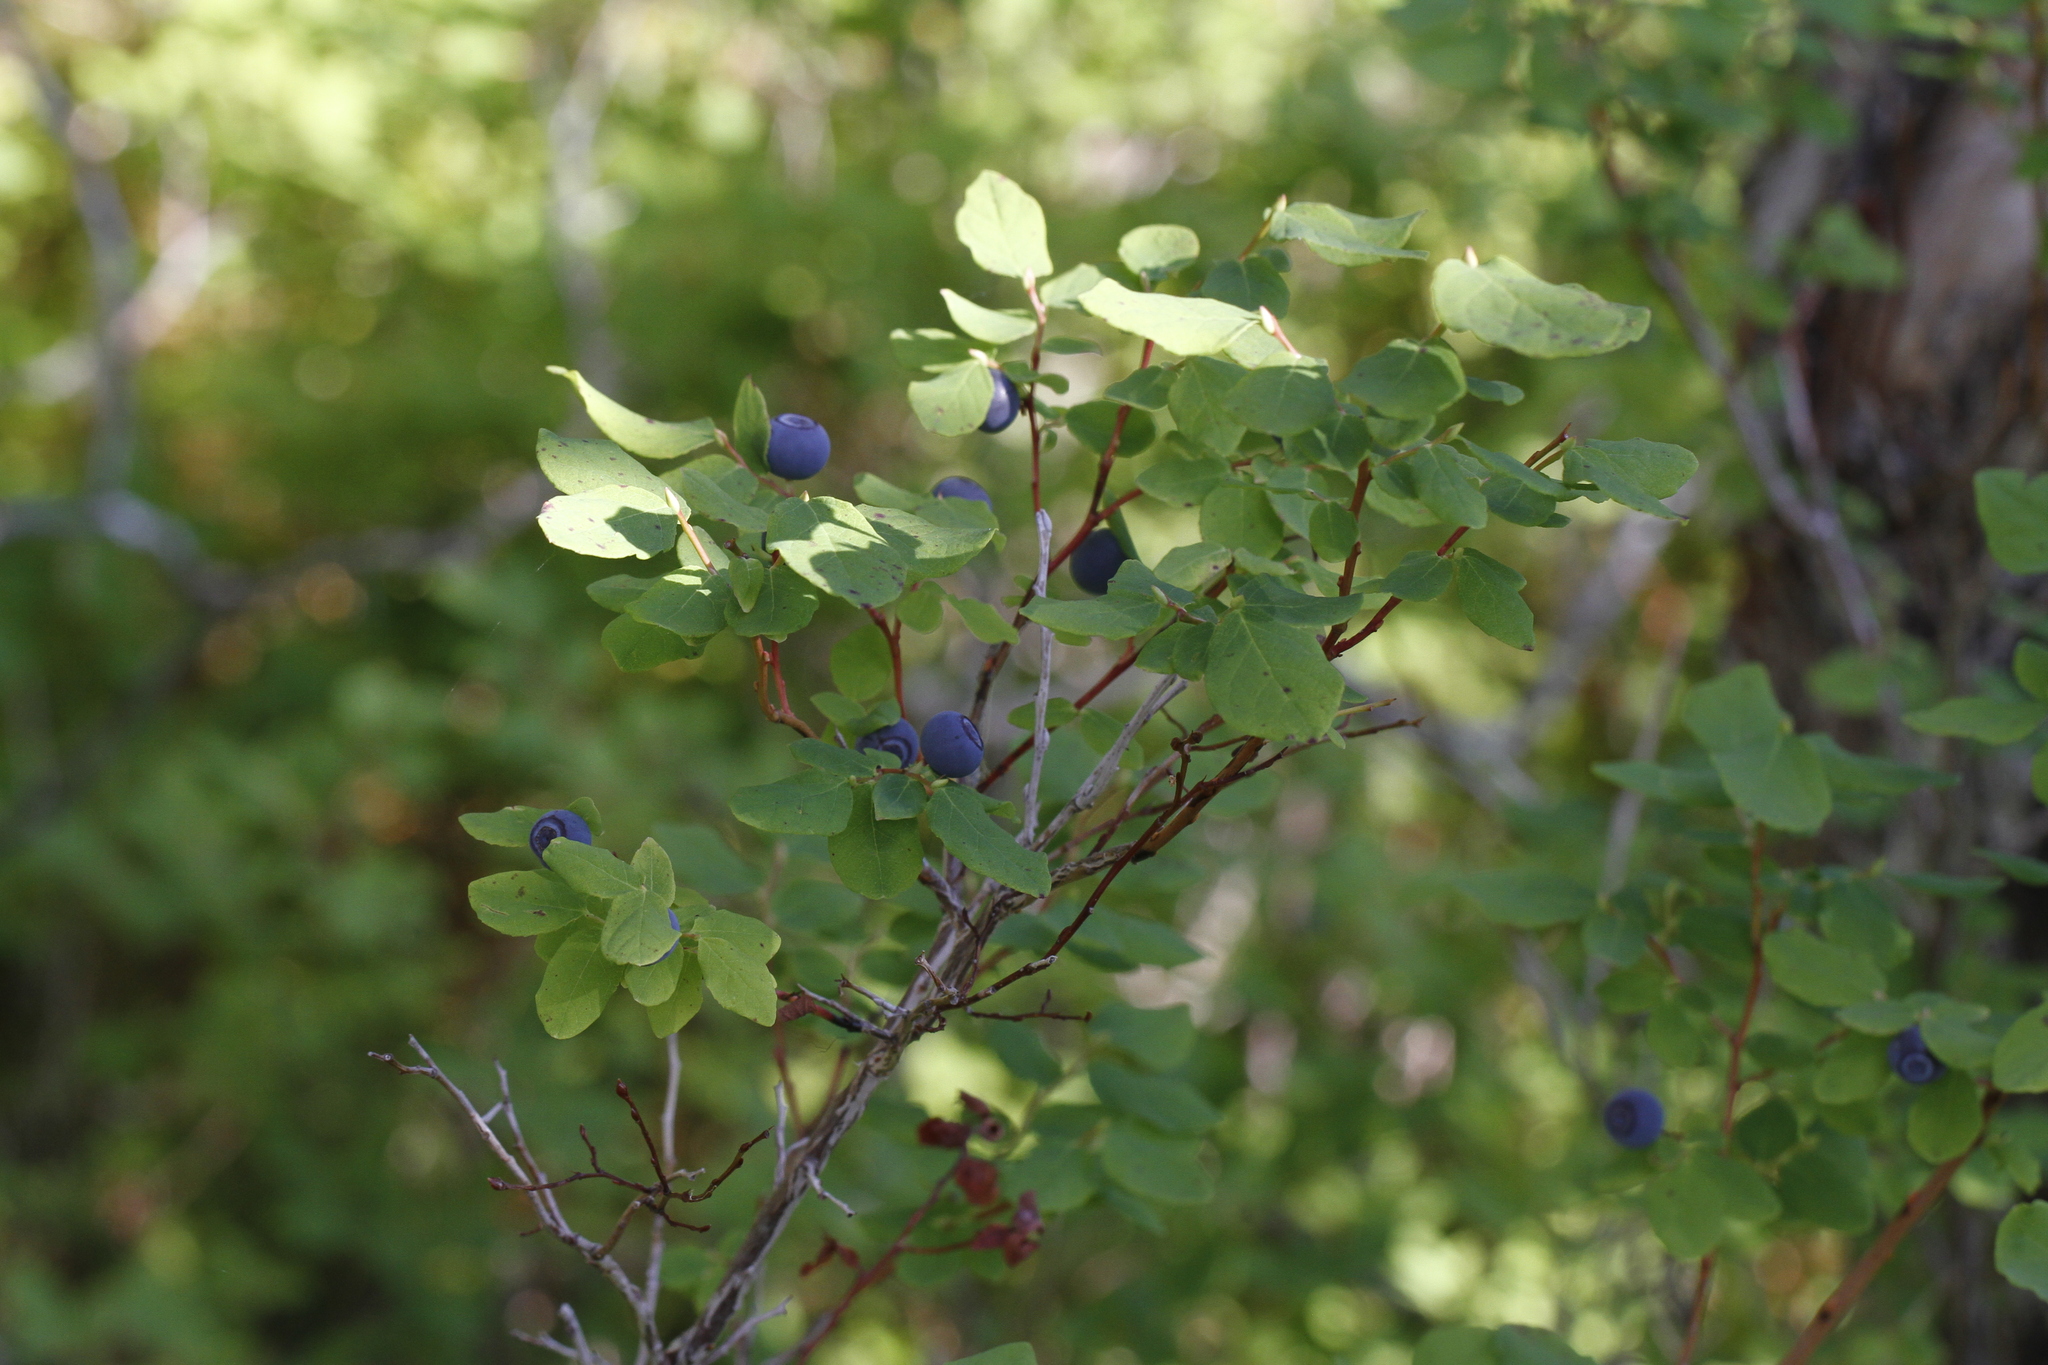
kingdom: Plantae
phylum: Tracheophyta
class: Magnoliopsida
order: Ericales
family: Ericaceae
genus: Vaccinium
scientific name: Vaccinium ovalifolium
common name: Early blueberry
